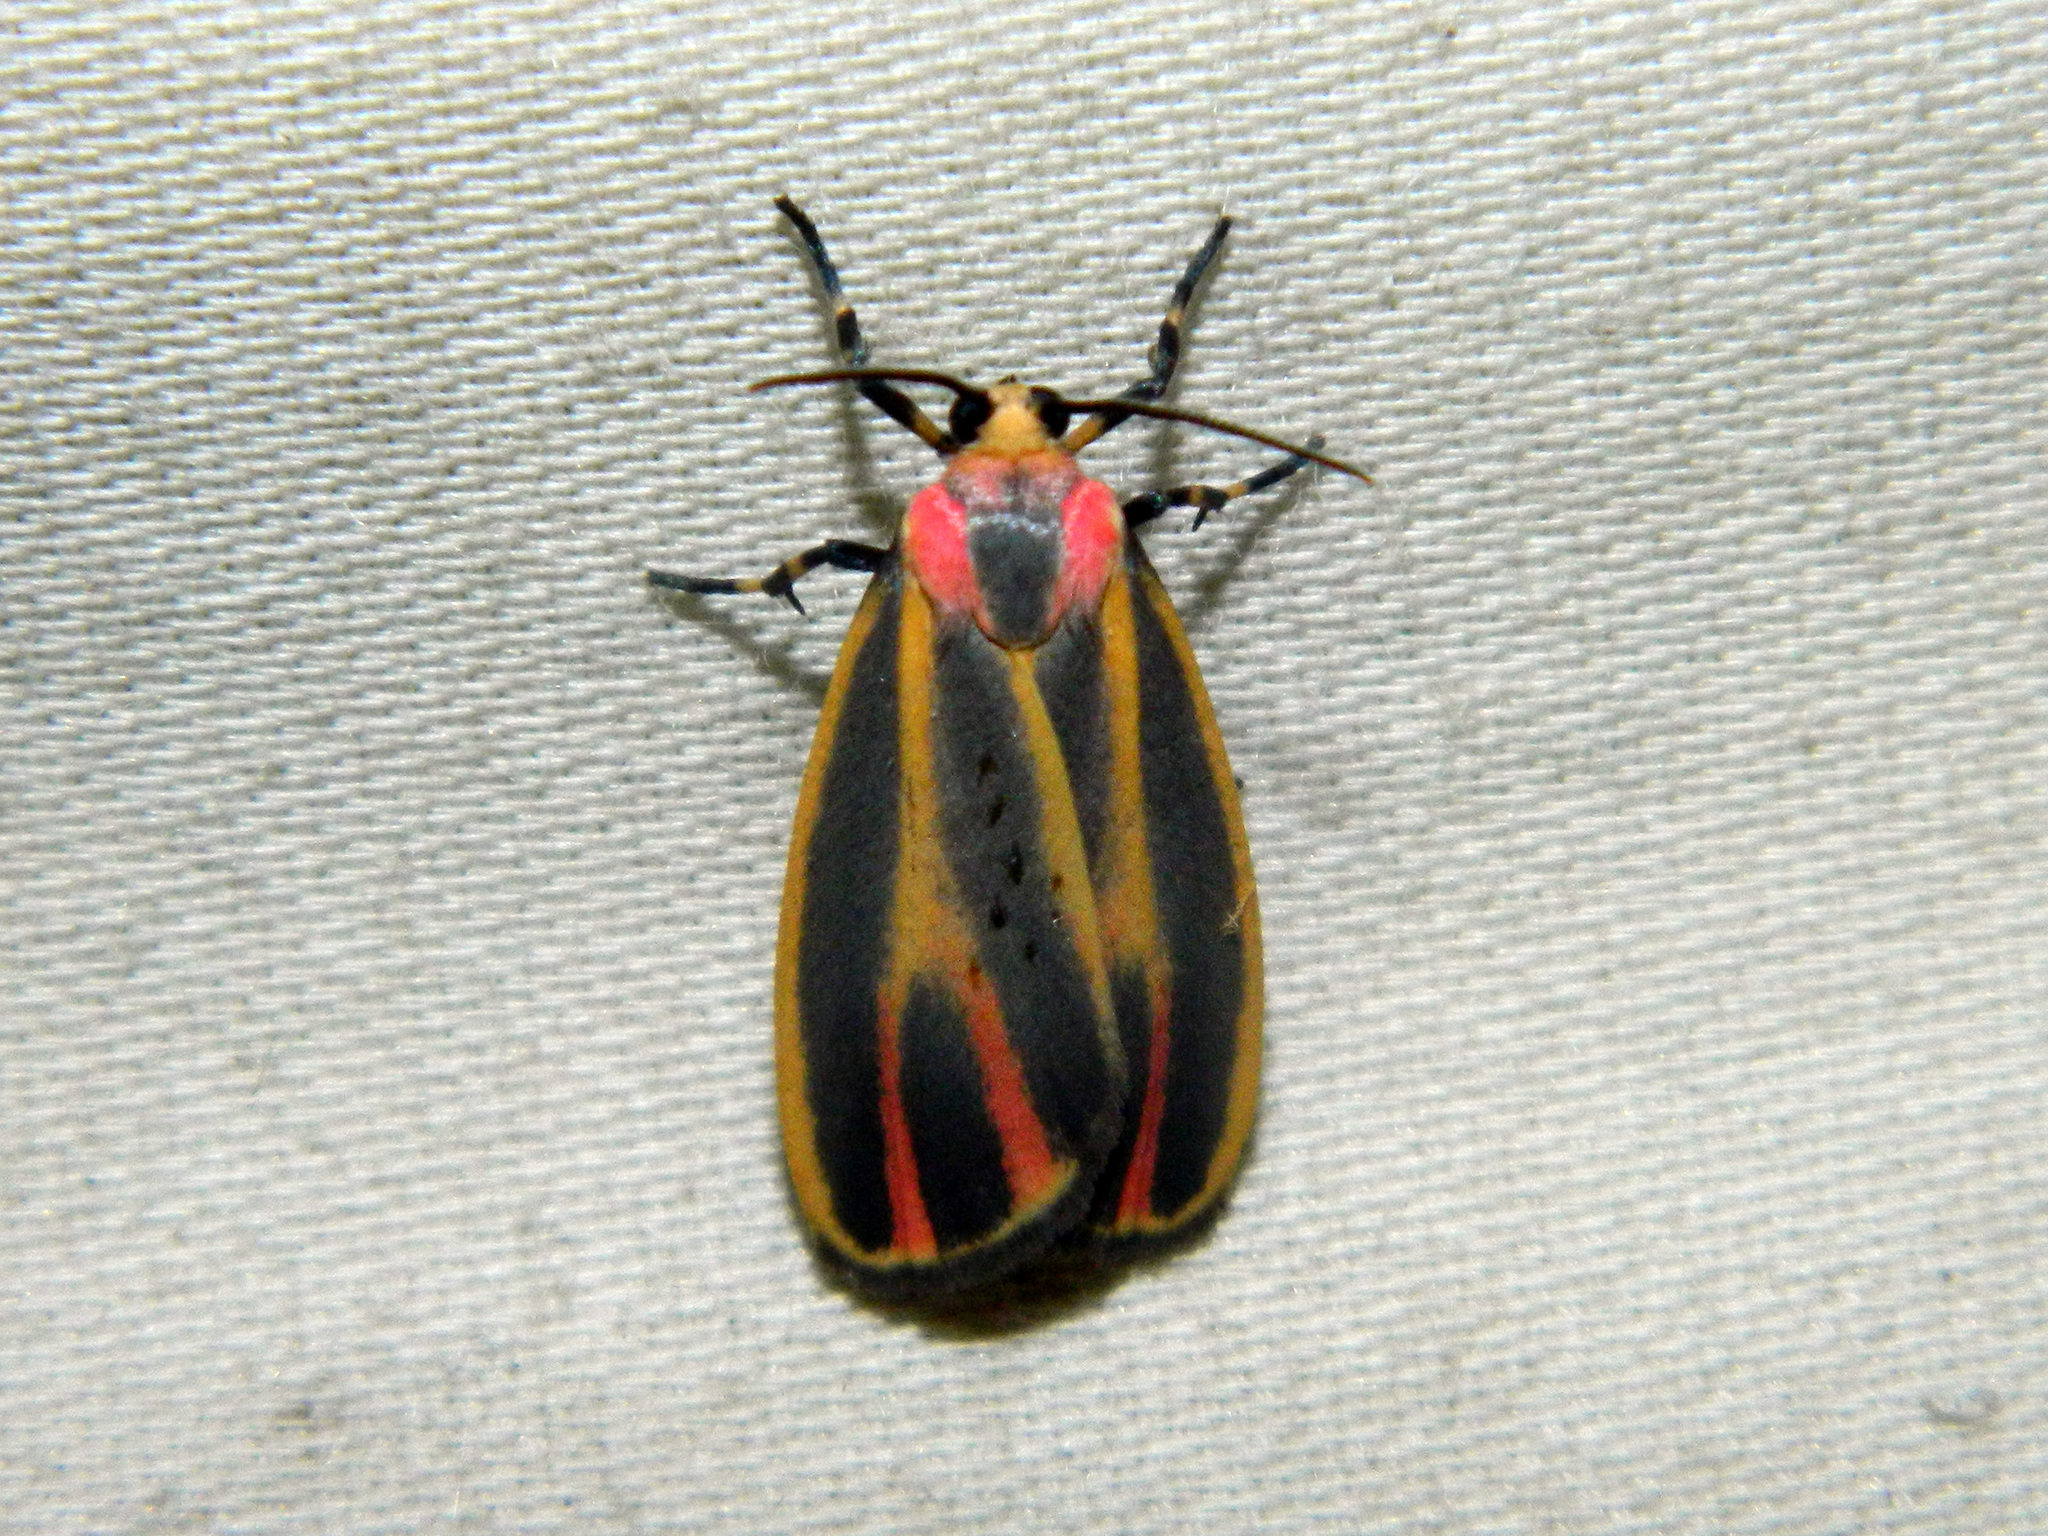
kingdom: Animalia
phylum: Arthropoda
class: Insecta
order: Lepidoptera
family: Erebidae
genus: Hypoprepia
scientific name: Hypoprepia fucosa
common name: Painted lichen moth
